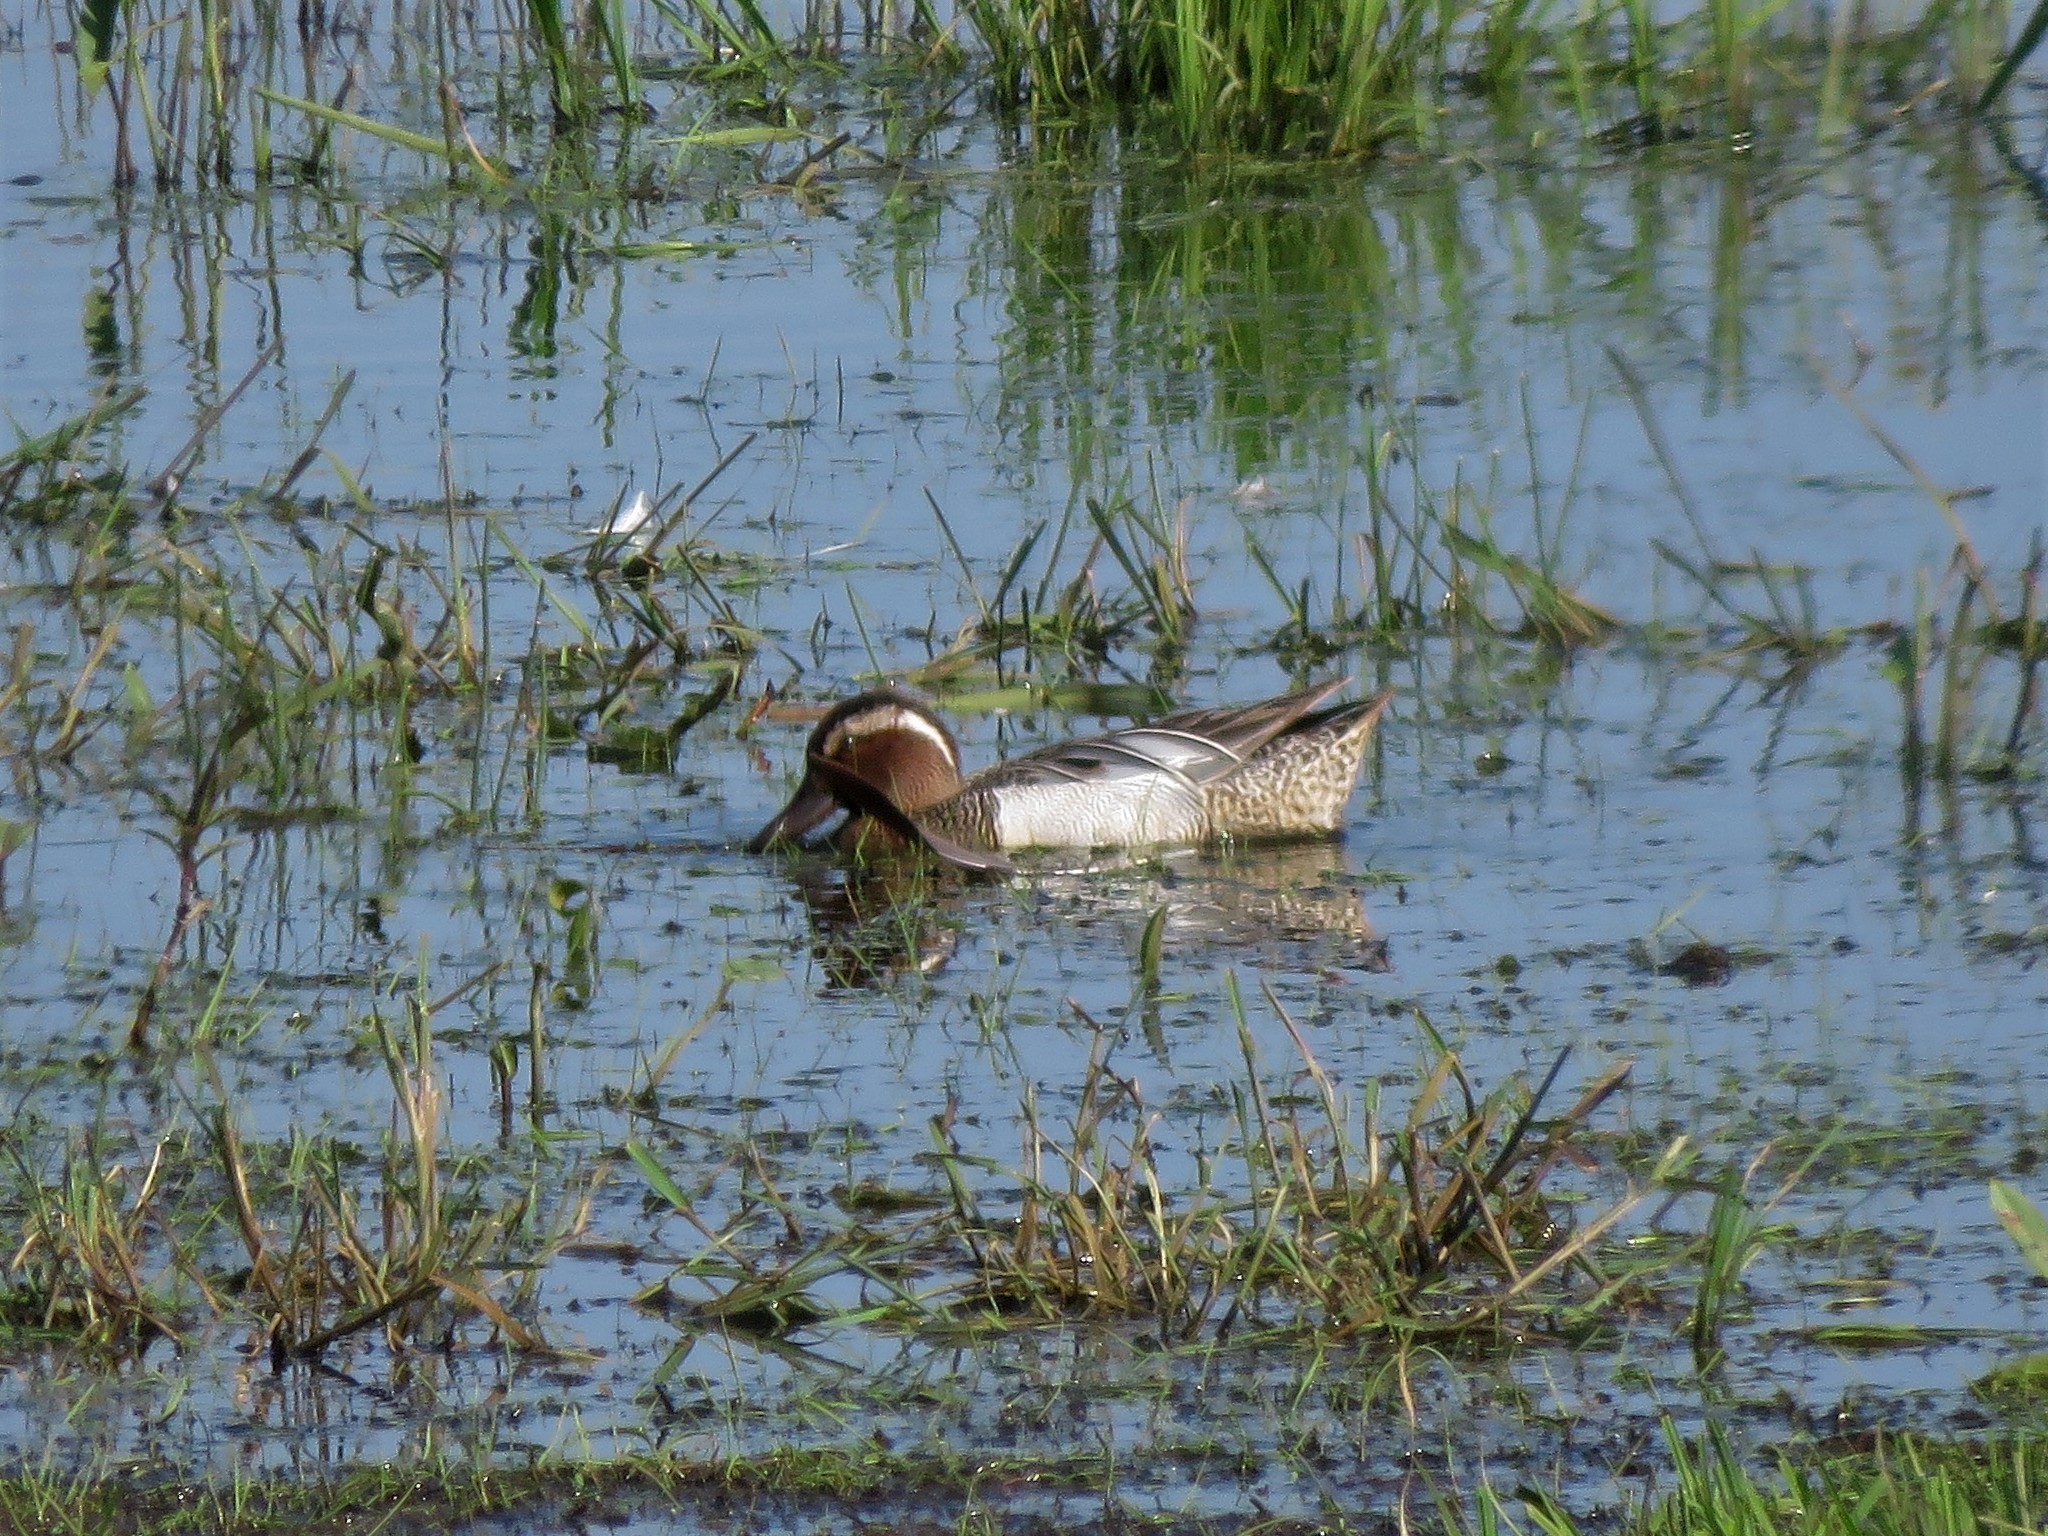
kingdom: Animalia
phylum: Chordata
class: Aves
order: Anseriformes
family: Anatidae
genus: Spatula
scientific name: Spatula querquedula
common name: Garganey
